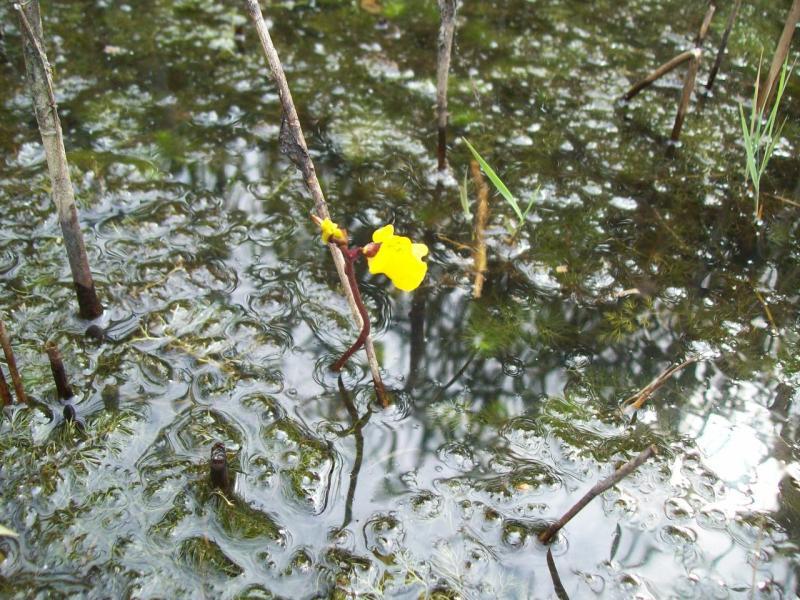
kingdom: Plantae
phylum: Tracheophyta
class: Magnoliopsida
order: Lamiales
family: Lentibulariaceae
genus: Utricularia
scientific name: Utricularia vulgaris
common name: Greater bladderwort
